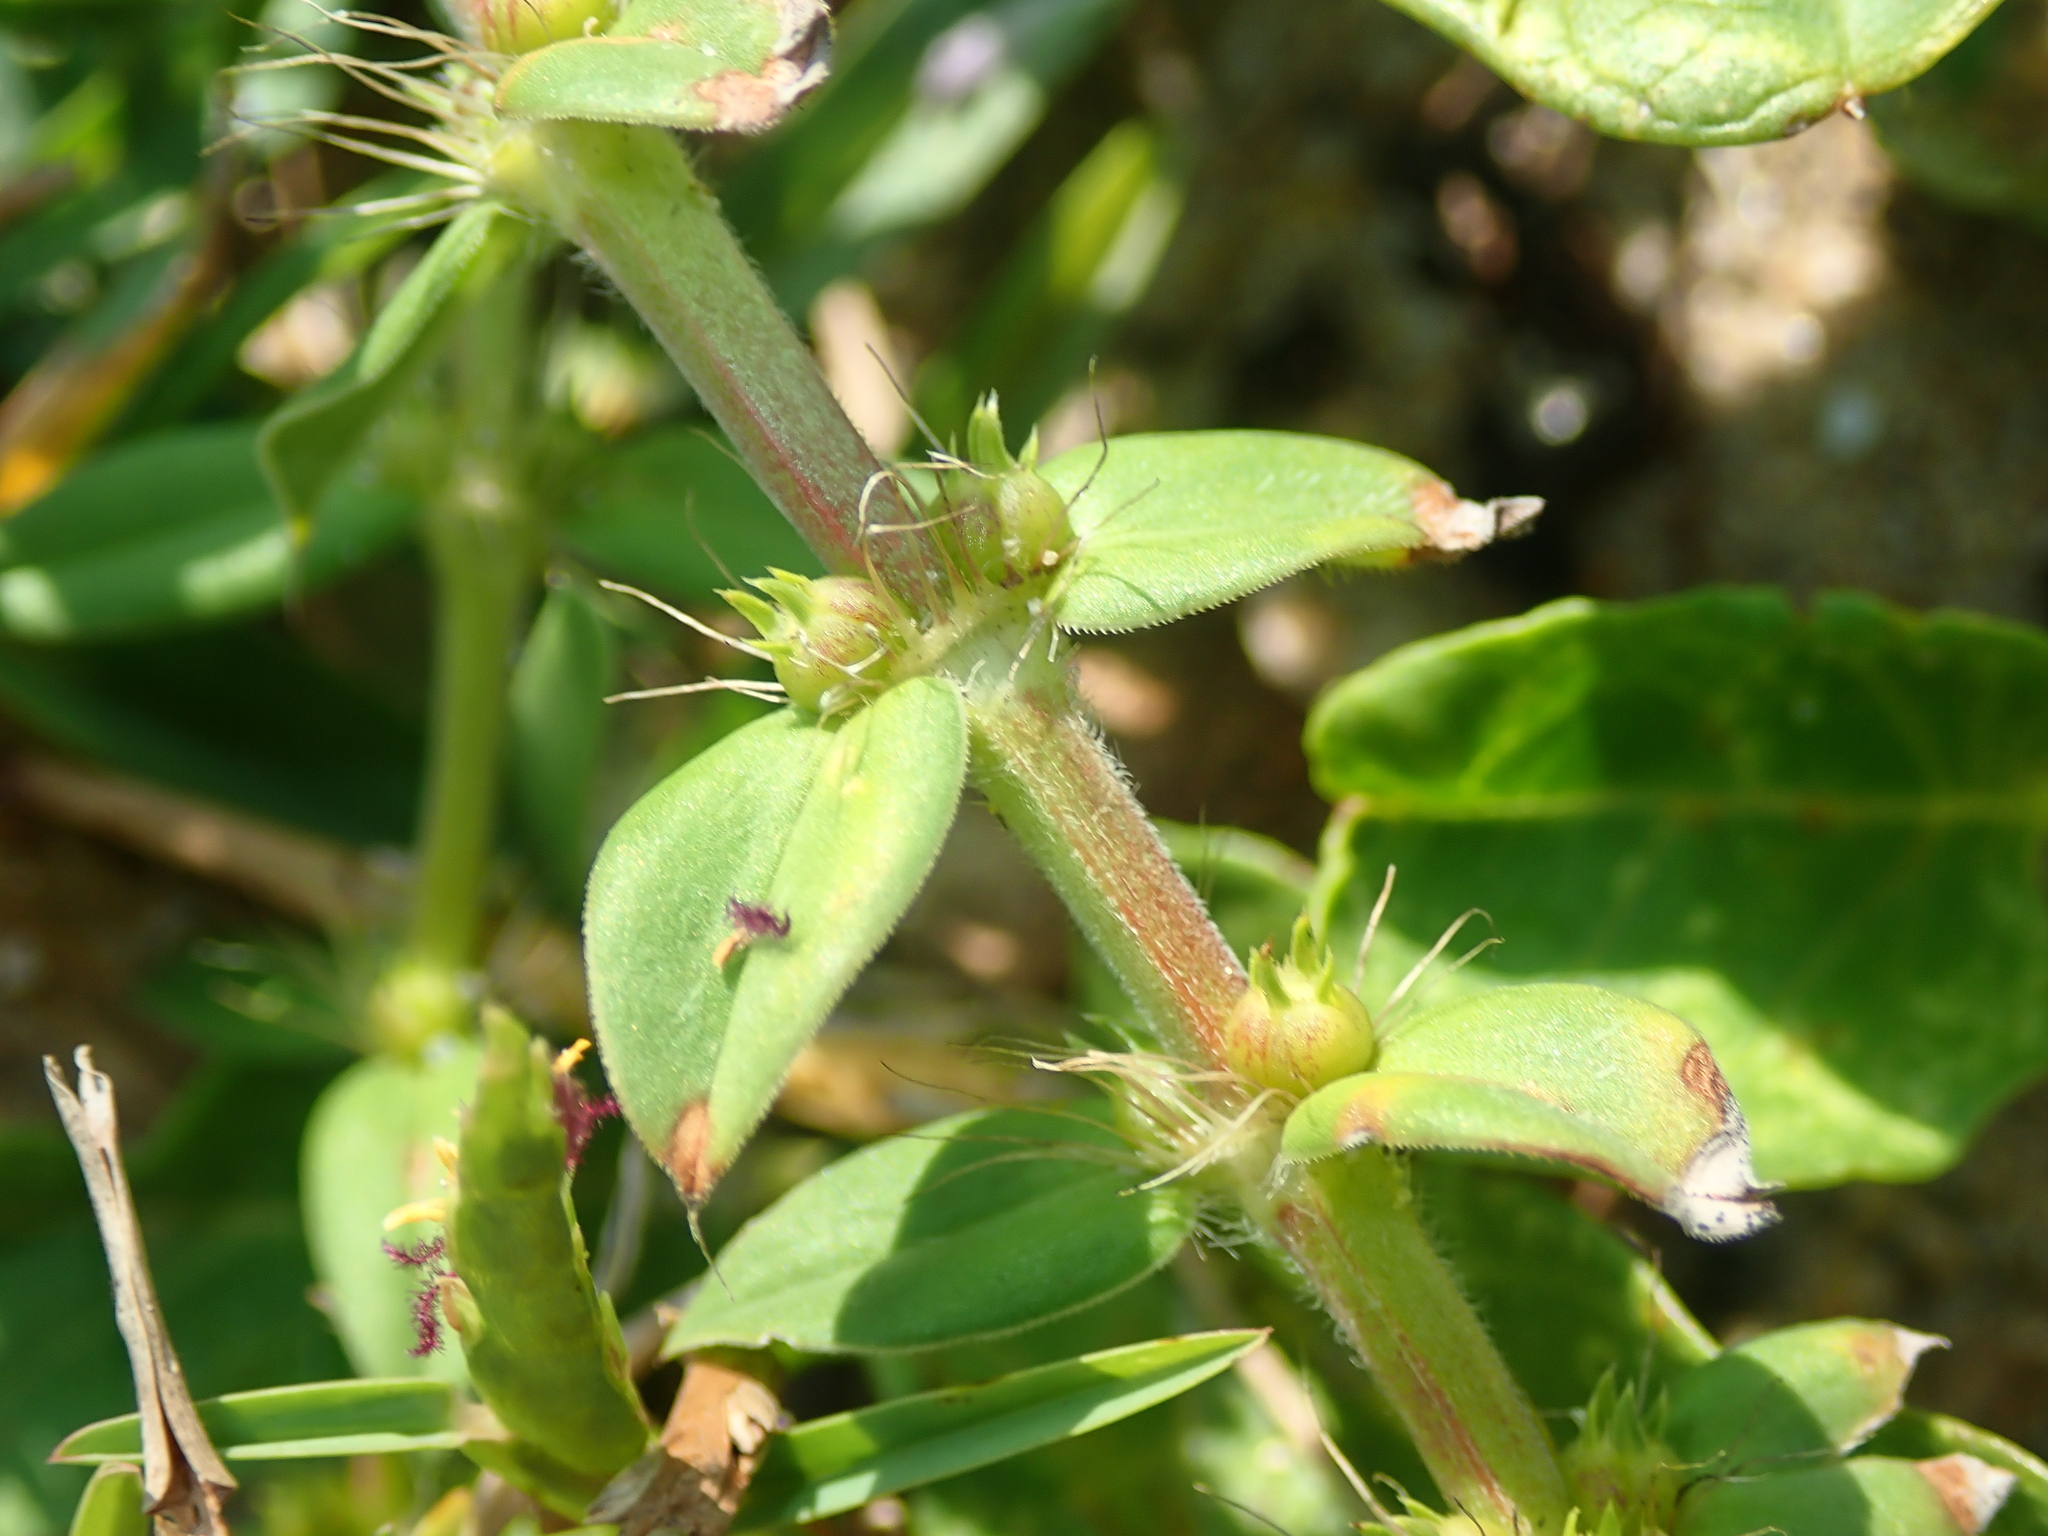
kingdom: Plantae
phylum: Tracheophyta
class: Magnoliopsida
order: Gentianales
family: Rubiaceae
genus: Hexasepalum
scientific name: Hexasepalum apiculatum
